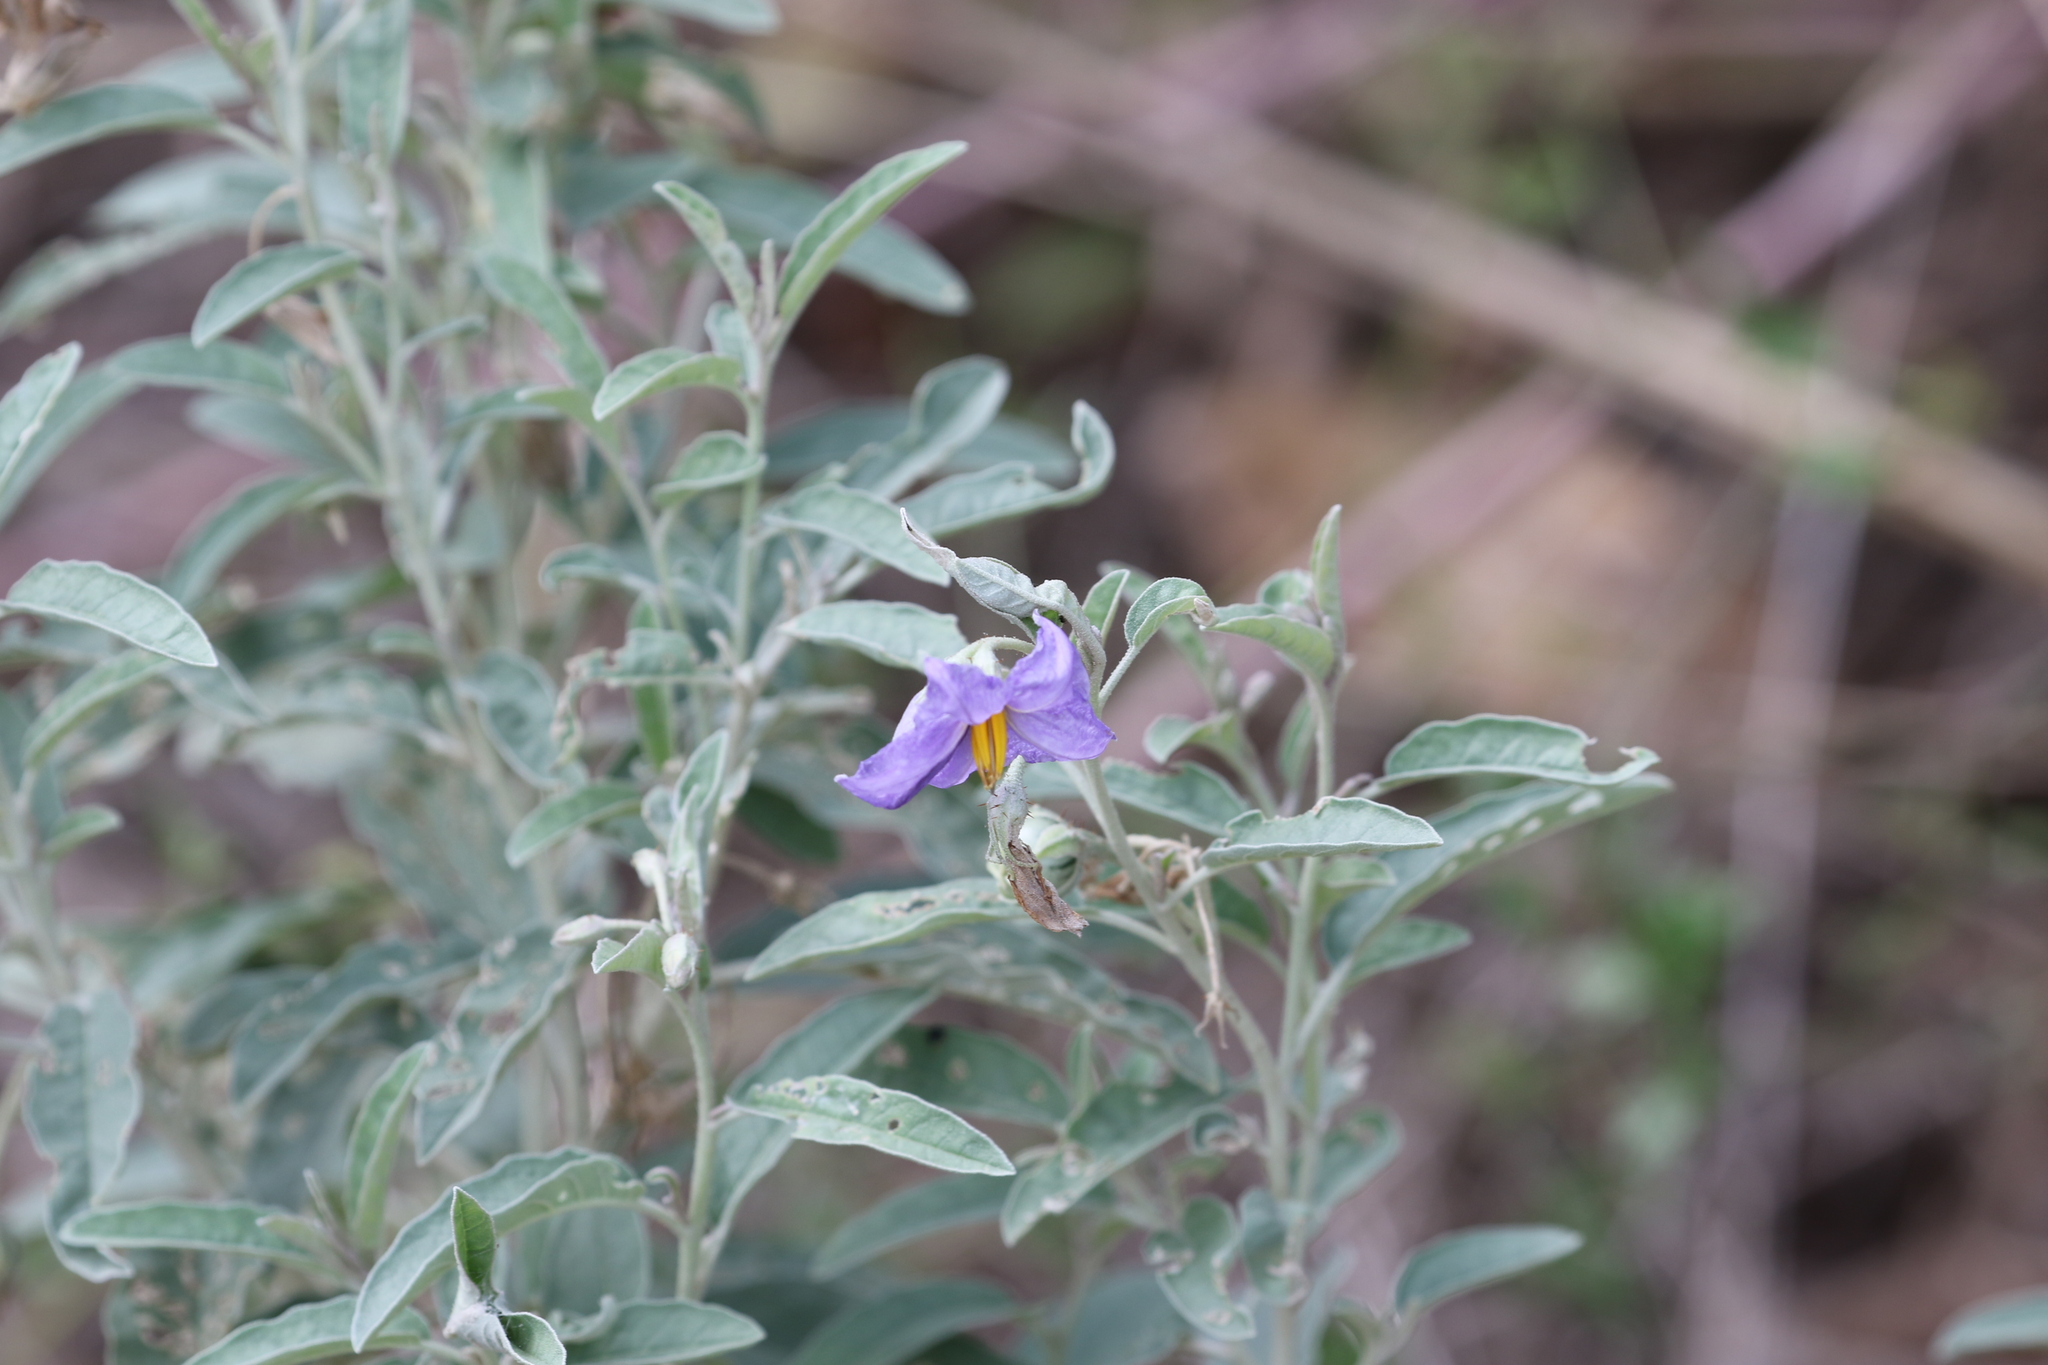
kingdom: Plantae
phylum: Tracheophyta
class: Magnoliopsida
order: Solanales
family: Solanaceae
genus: Solanum
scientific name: Solanum elaeagnifolium
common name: Silverleaf nightshade
